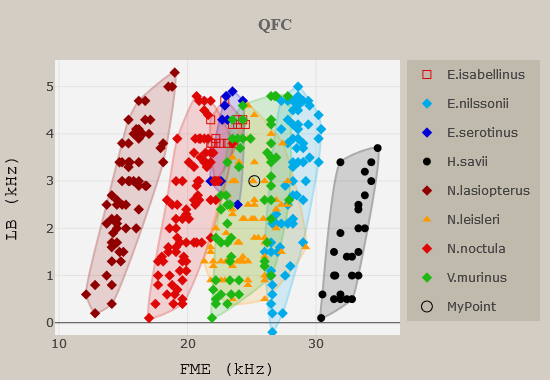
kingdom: Animalia
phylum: Chordata
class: Mammalia
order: Chiroptera
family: Vespertilionidae
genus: Nyctalus
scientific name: Nyctalus leisleri
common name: Lesser noctule
